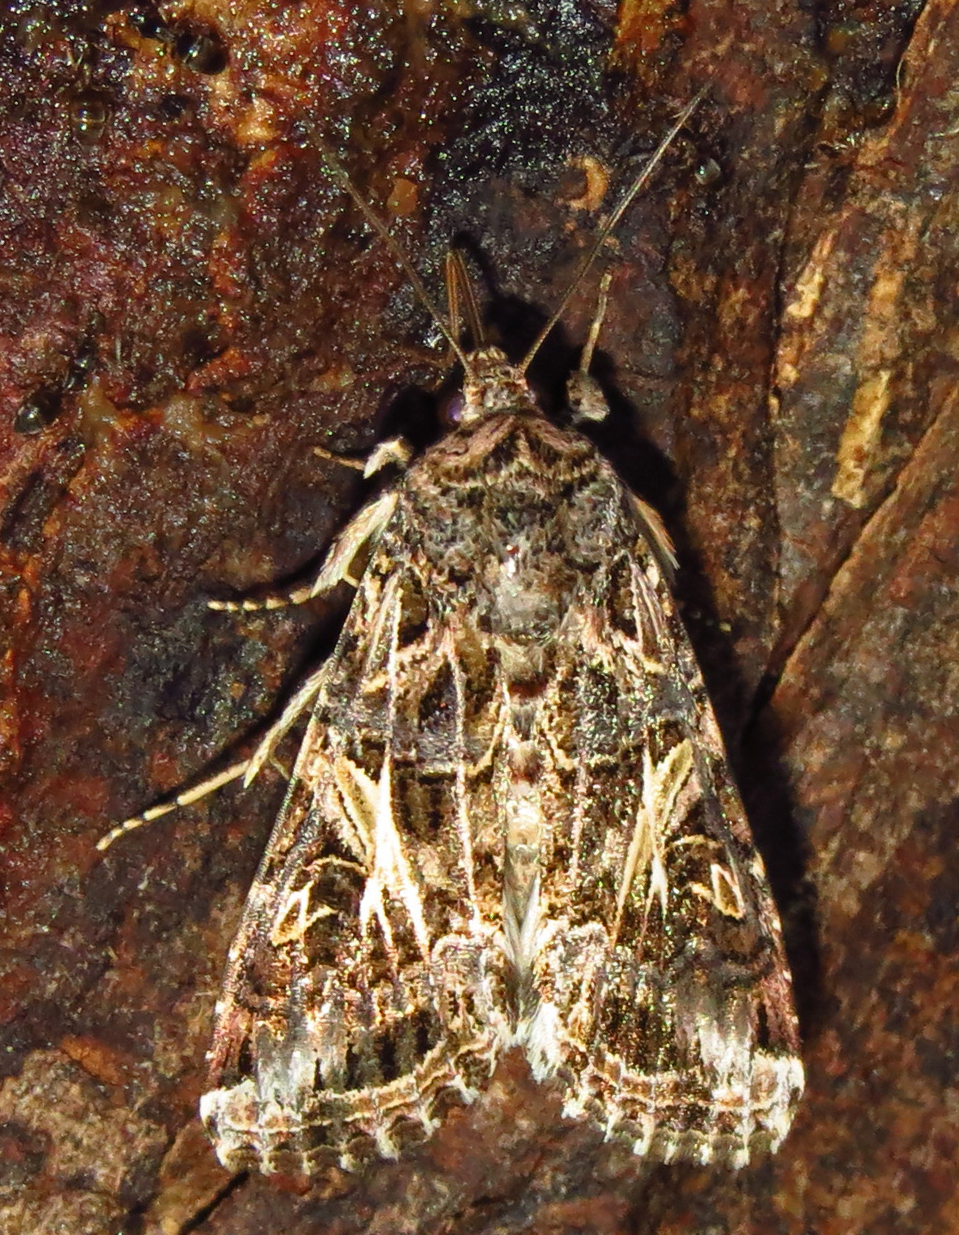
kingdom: Animalia
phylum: Arthropoda
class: Insecta
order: Lepidoptera
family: Noctuidae
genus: Spodoptera
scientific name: Spodoptera ornithogalli
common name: Yellow-striped armyworm
